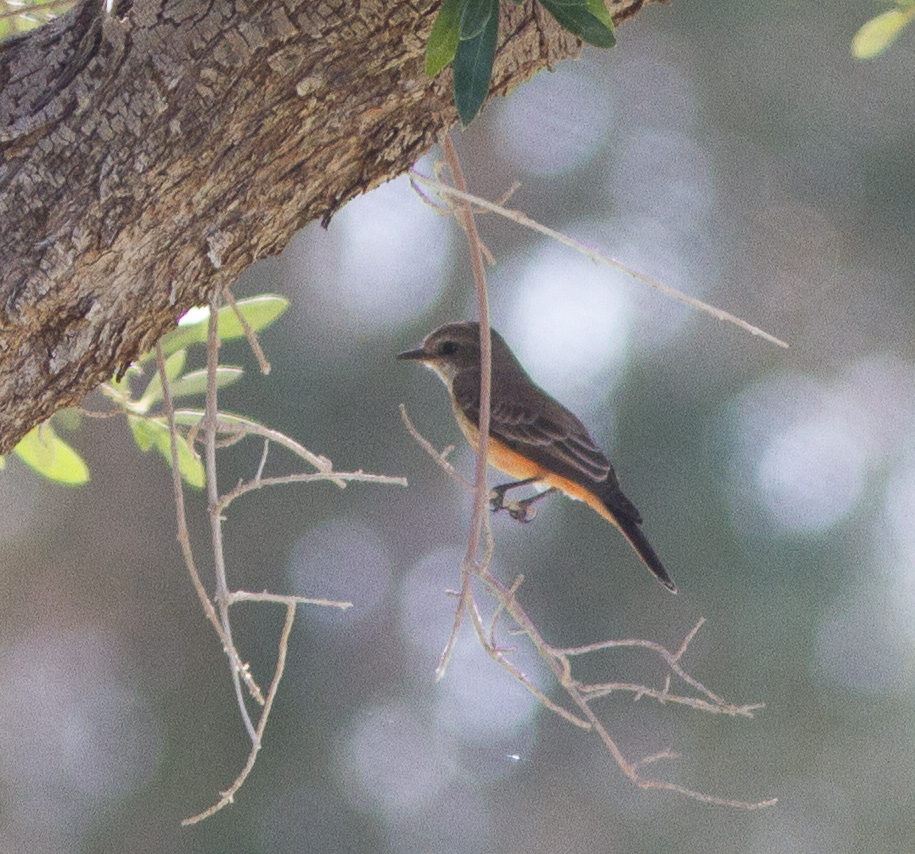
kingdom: Animalia
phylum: Chordata
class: Aves
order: Passeriformes
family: Tyrannidae
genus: Pyrocephalus
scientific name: Pyrocephalus rubinus
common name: Vermilion flycatcher
